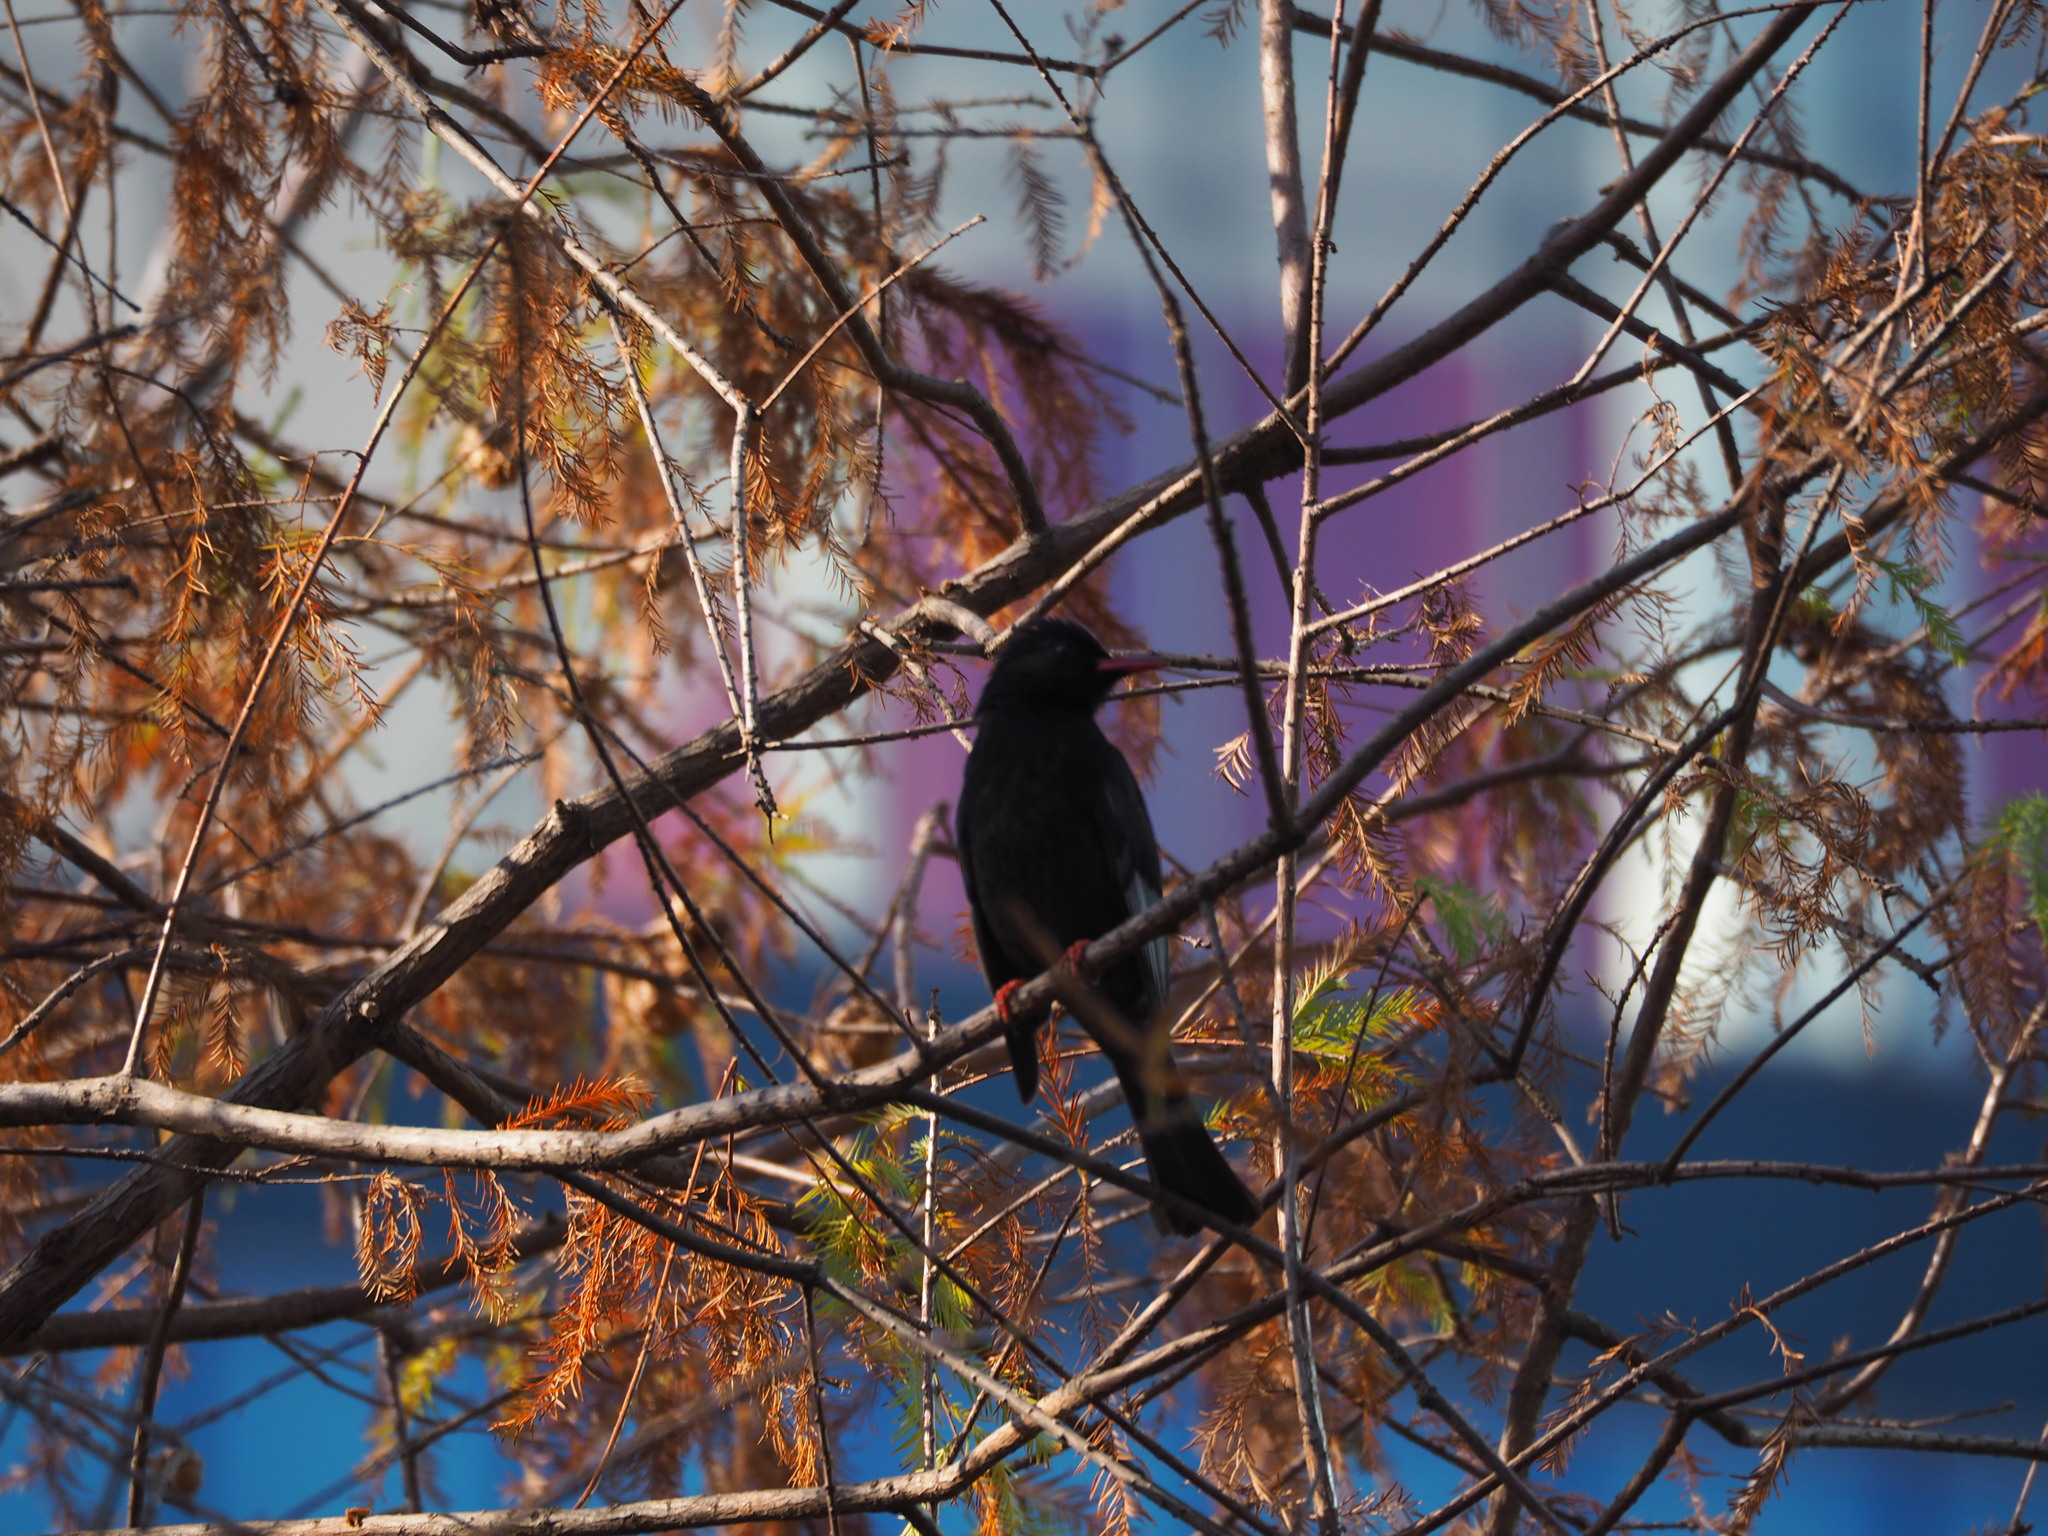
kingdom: Animalia
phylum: Chordata
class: Aves
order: Passeriformes
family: Pycnonotidae
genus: Hypsipetes
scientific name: Hypsipetes leucocephalus
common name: Black bulbul
